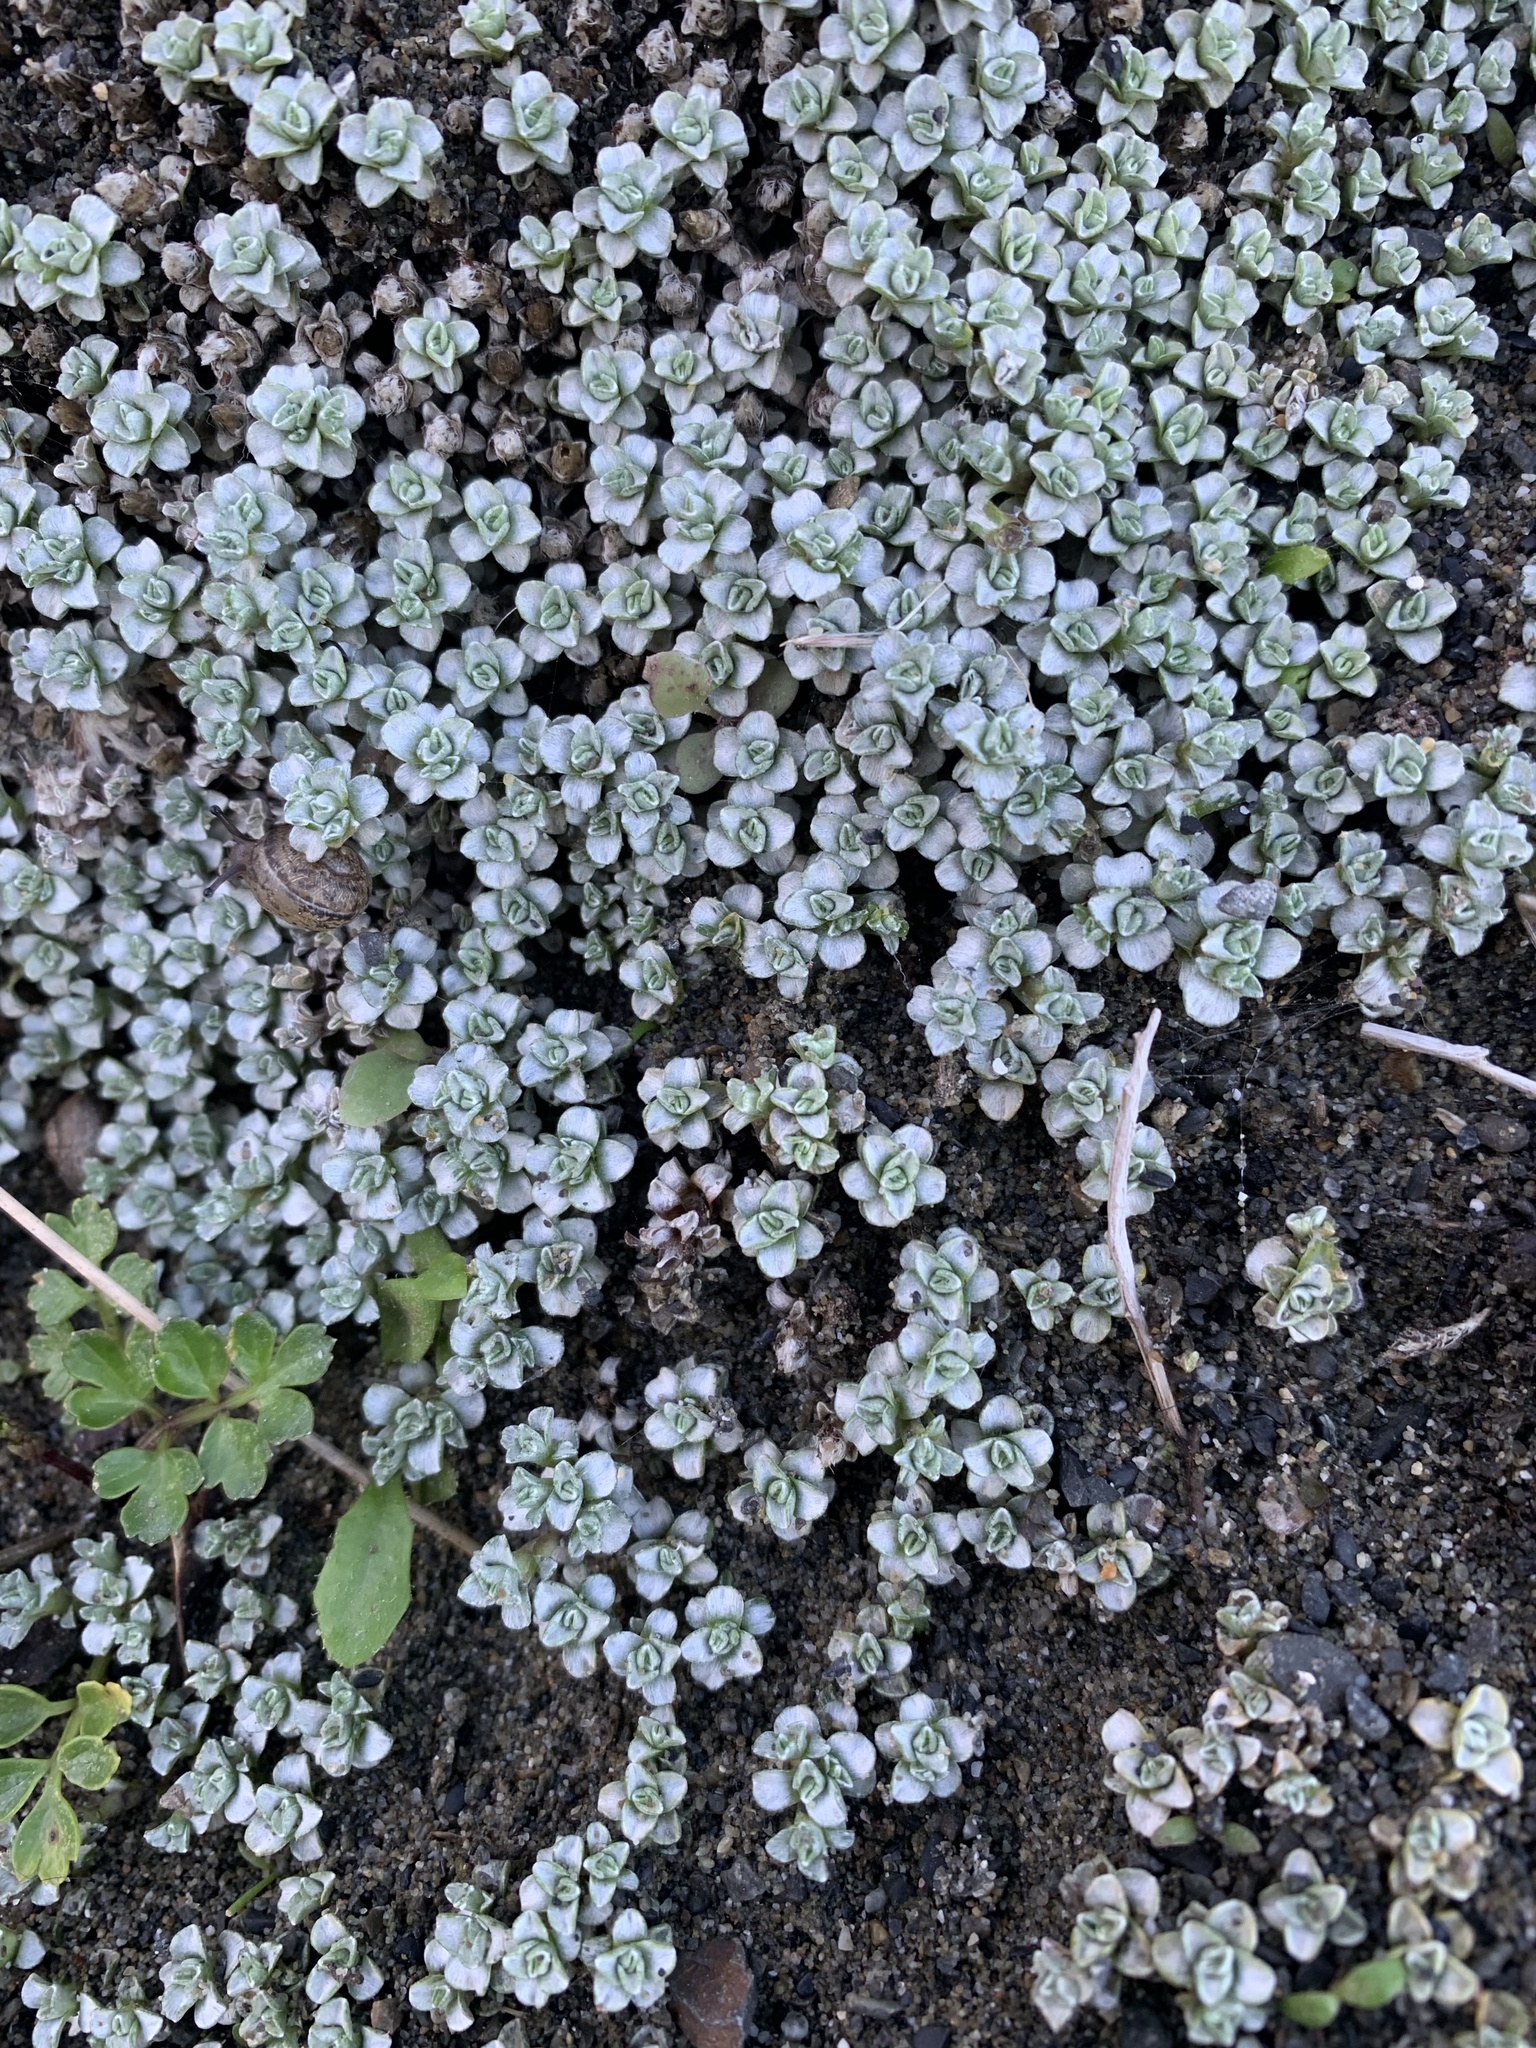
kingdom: Plantae
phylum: Tracheophyta
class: Magnoliopsida
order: Asterales
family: Asteraceae
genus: Raoulia
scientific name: Raoulia hookeri
